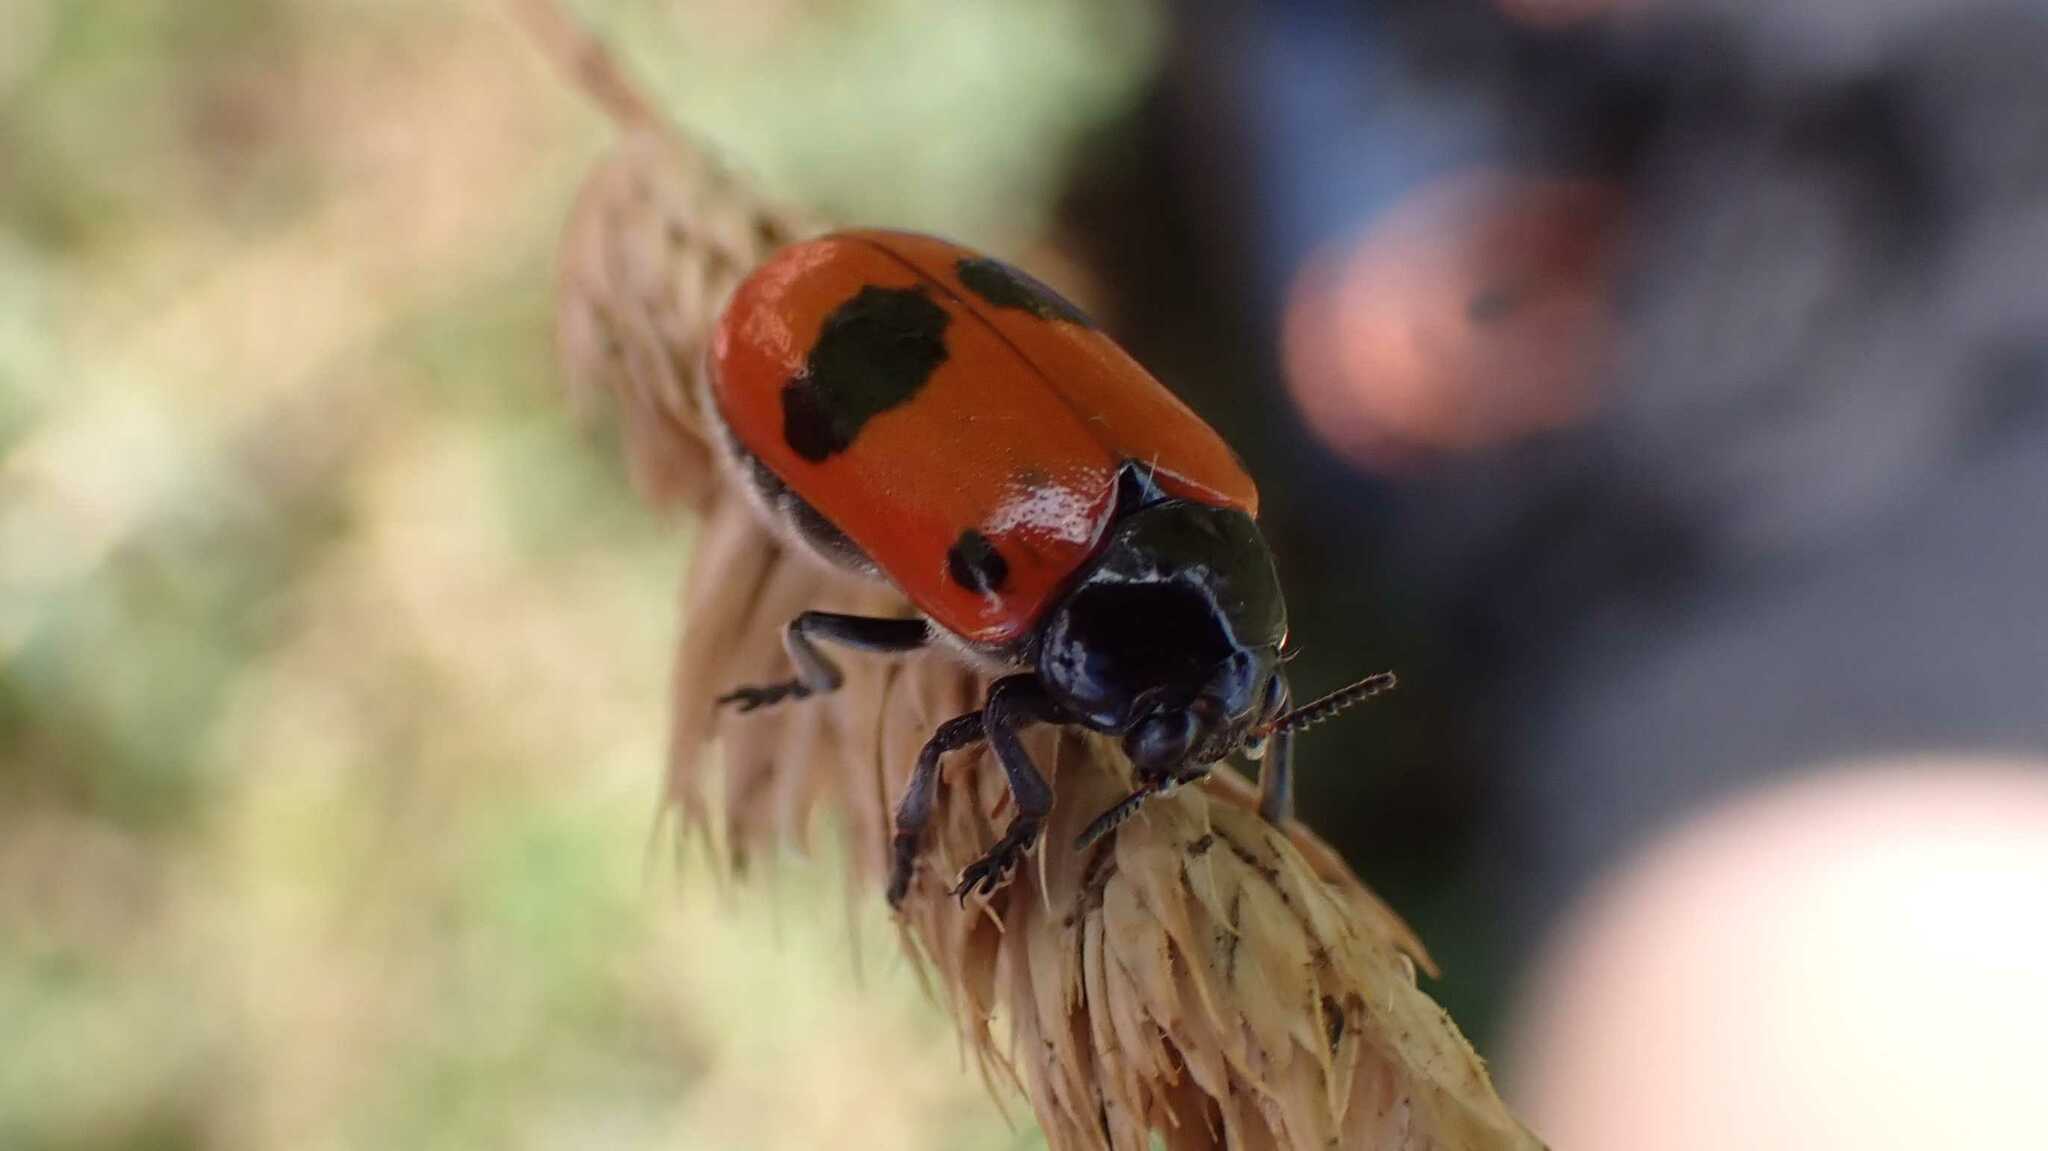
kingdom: Animalia
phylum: Arthropoda
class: Insecta
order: Coleoptera
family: Chrysomelidae
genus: Clytra
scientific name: Clytra laeviuscula
